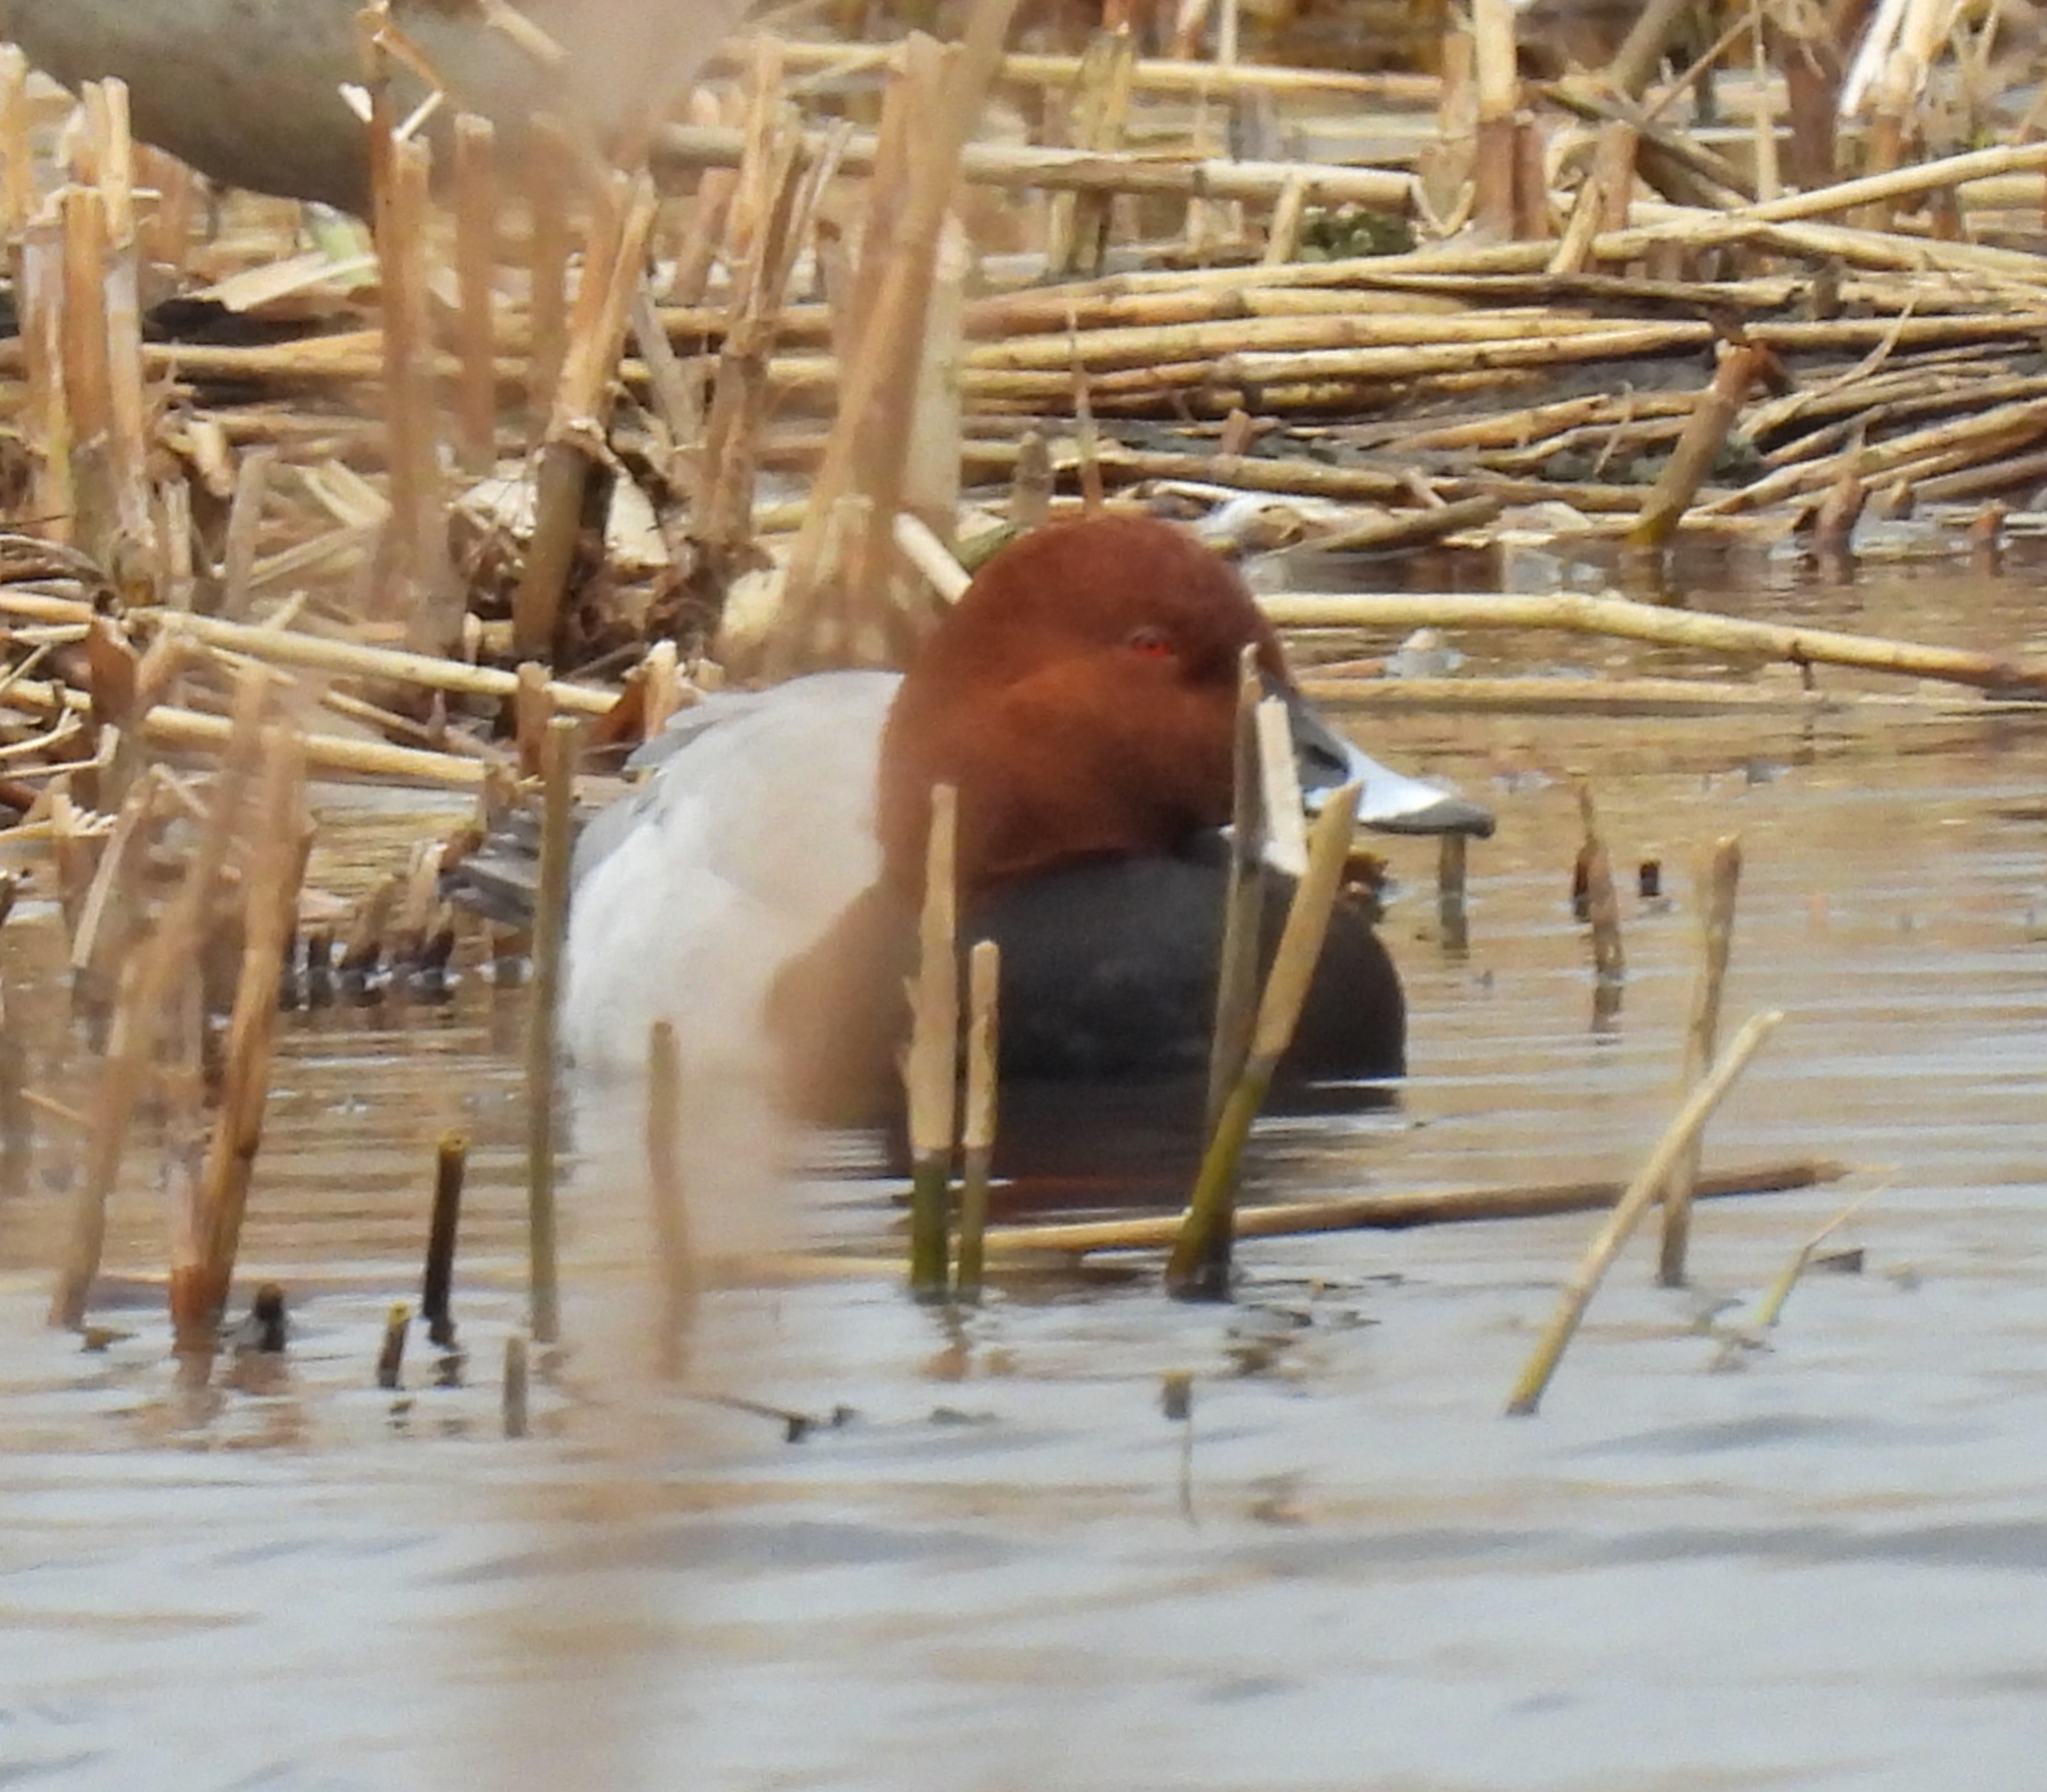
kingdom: Animalia
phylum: Chordata
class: Aves
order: Anseriformes
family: Anatidae
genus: Aythya
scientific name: Aythya ferina
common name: Common pochard
